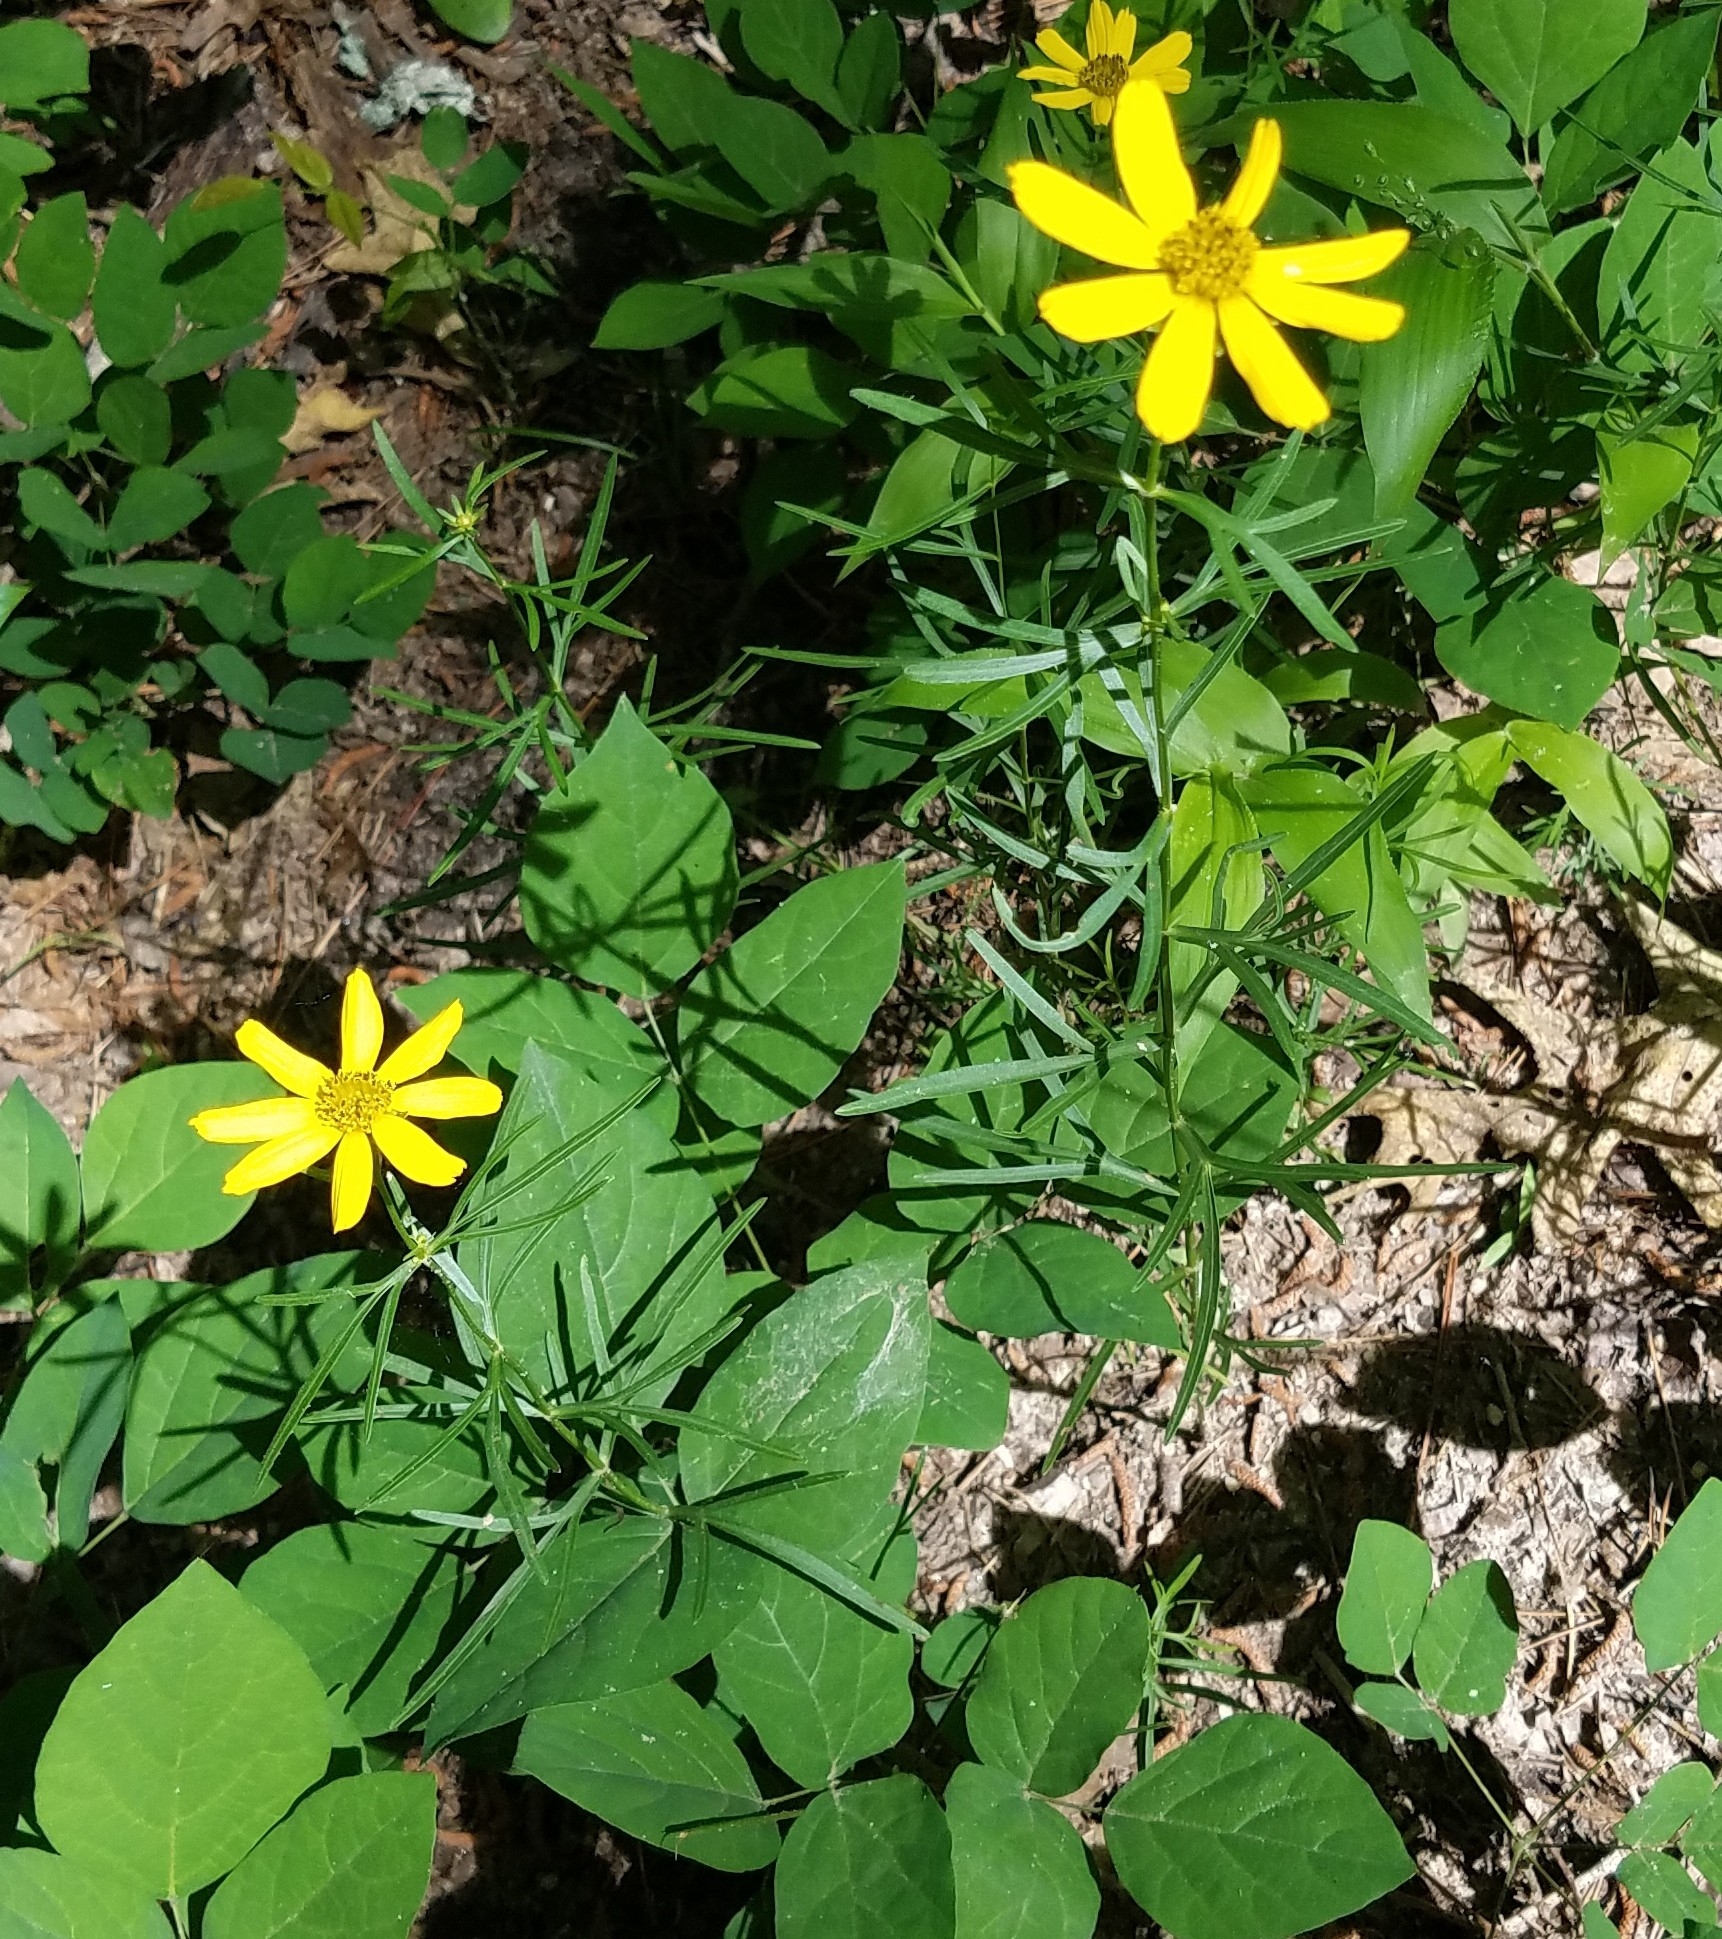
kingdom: Plantae
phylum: Tracheophyta
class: Magnoliopsida
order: Asterales
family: Asteraceae
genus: Coreopsis
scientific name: Coreopsis palmata
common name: Prairie coreopsis
